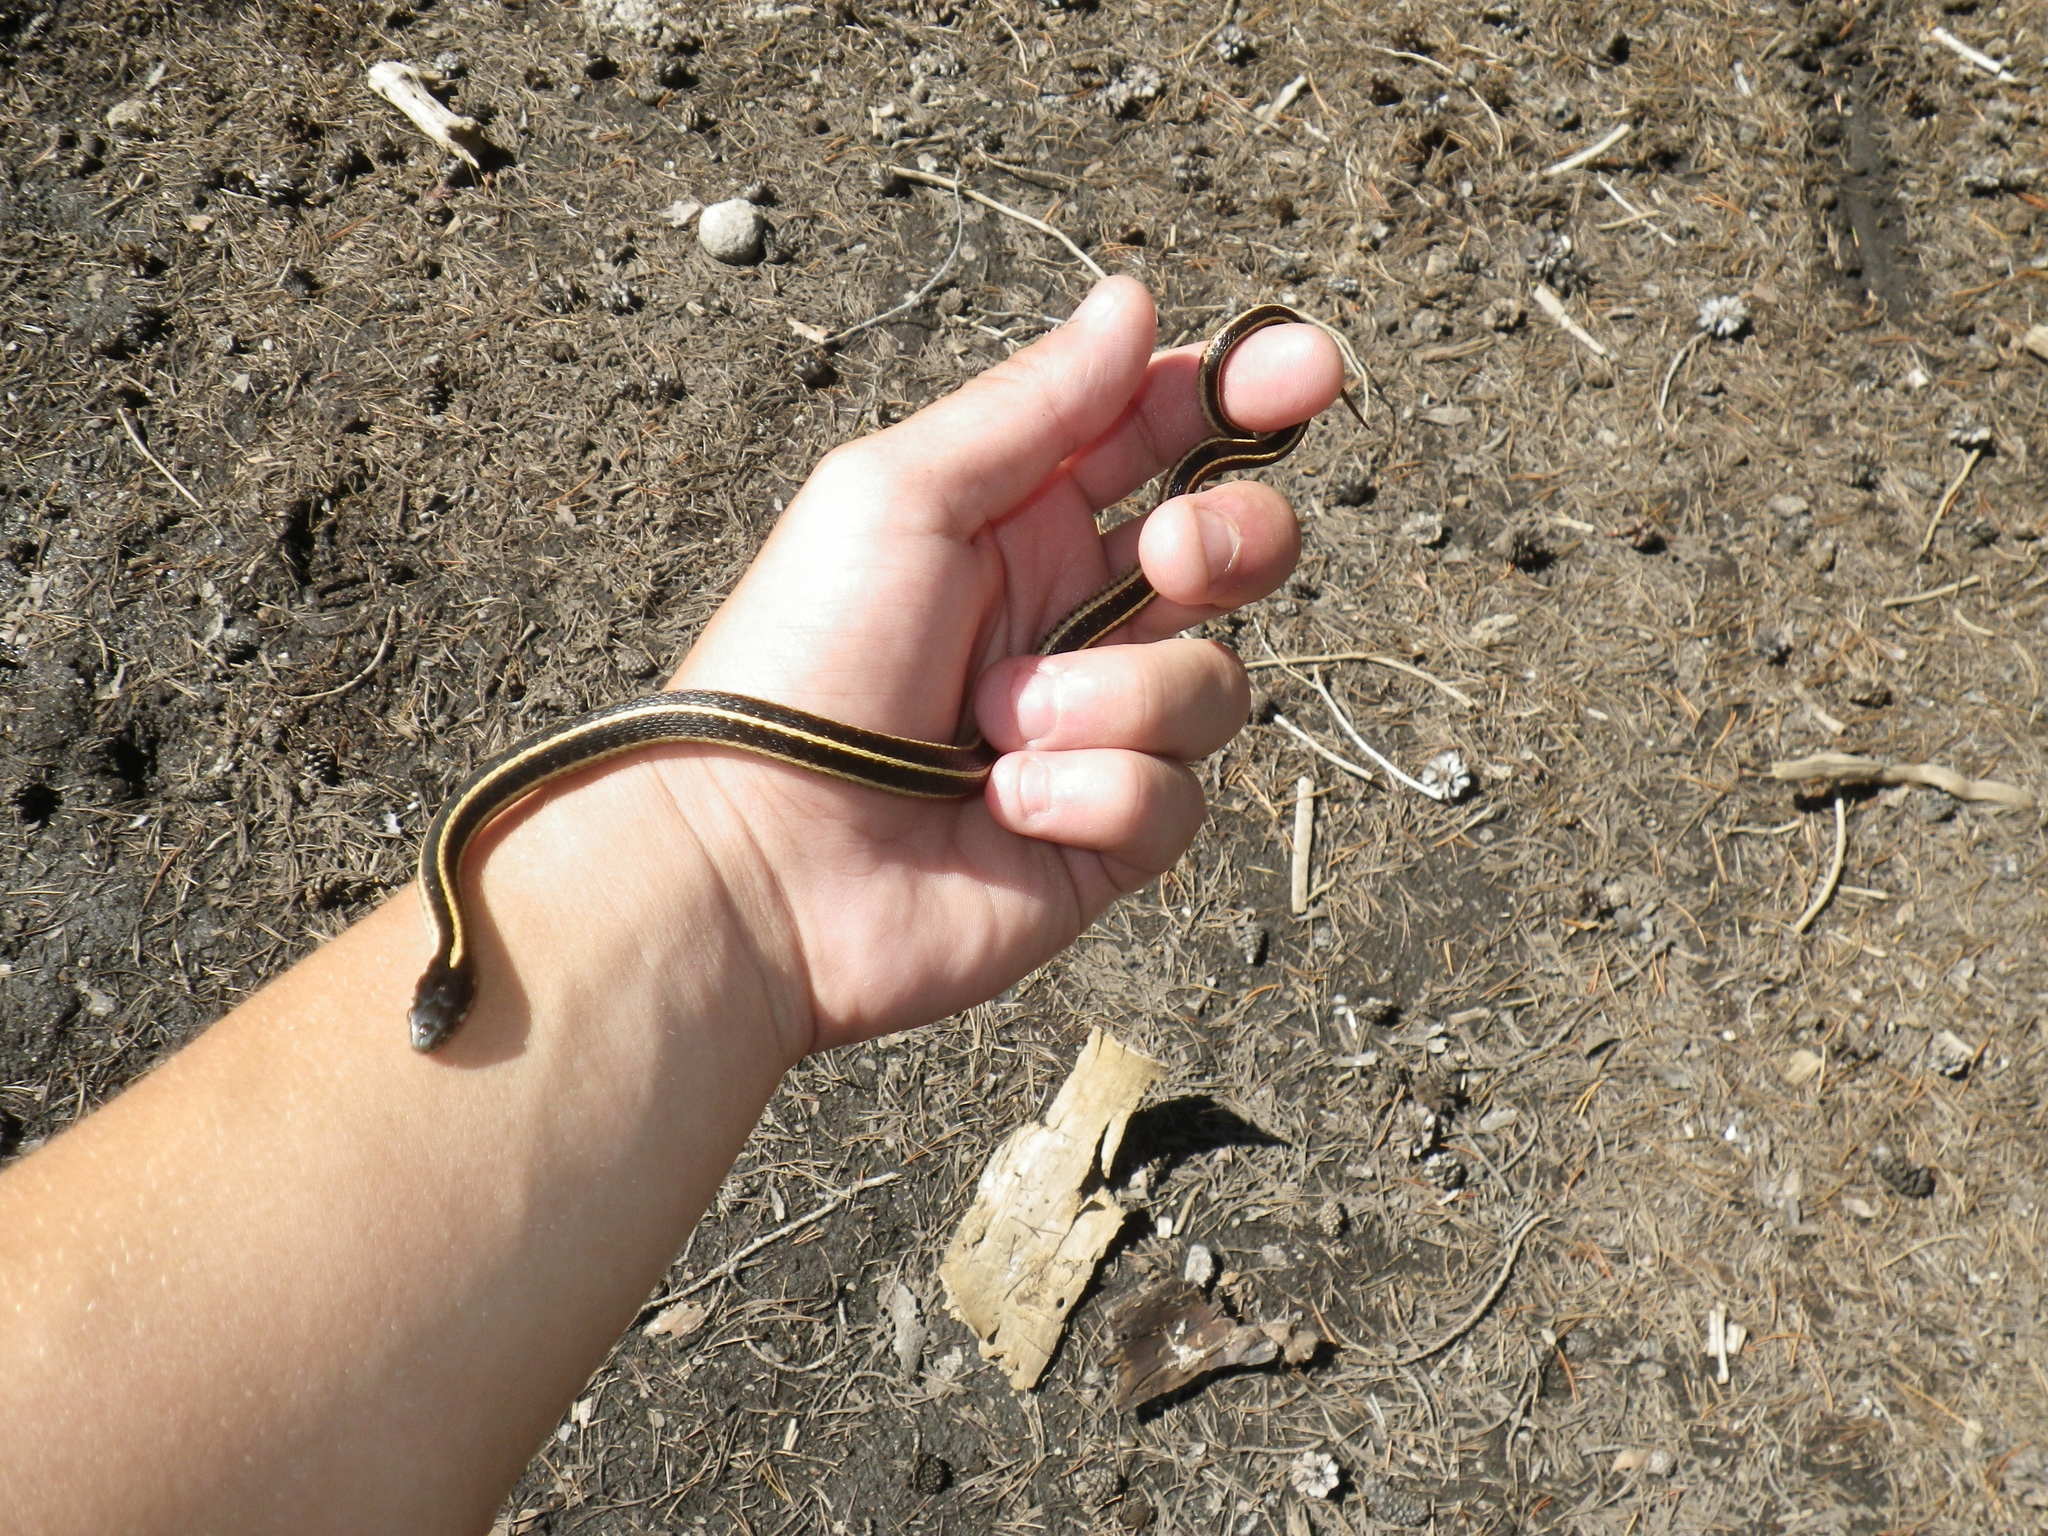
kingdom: Animalia
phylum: Chordata
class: Squamata
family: Colubridae
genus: Thamnophis
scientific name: Thamnophis elegans
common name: Western terrestrial garter snake
